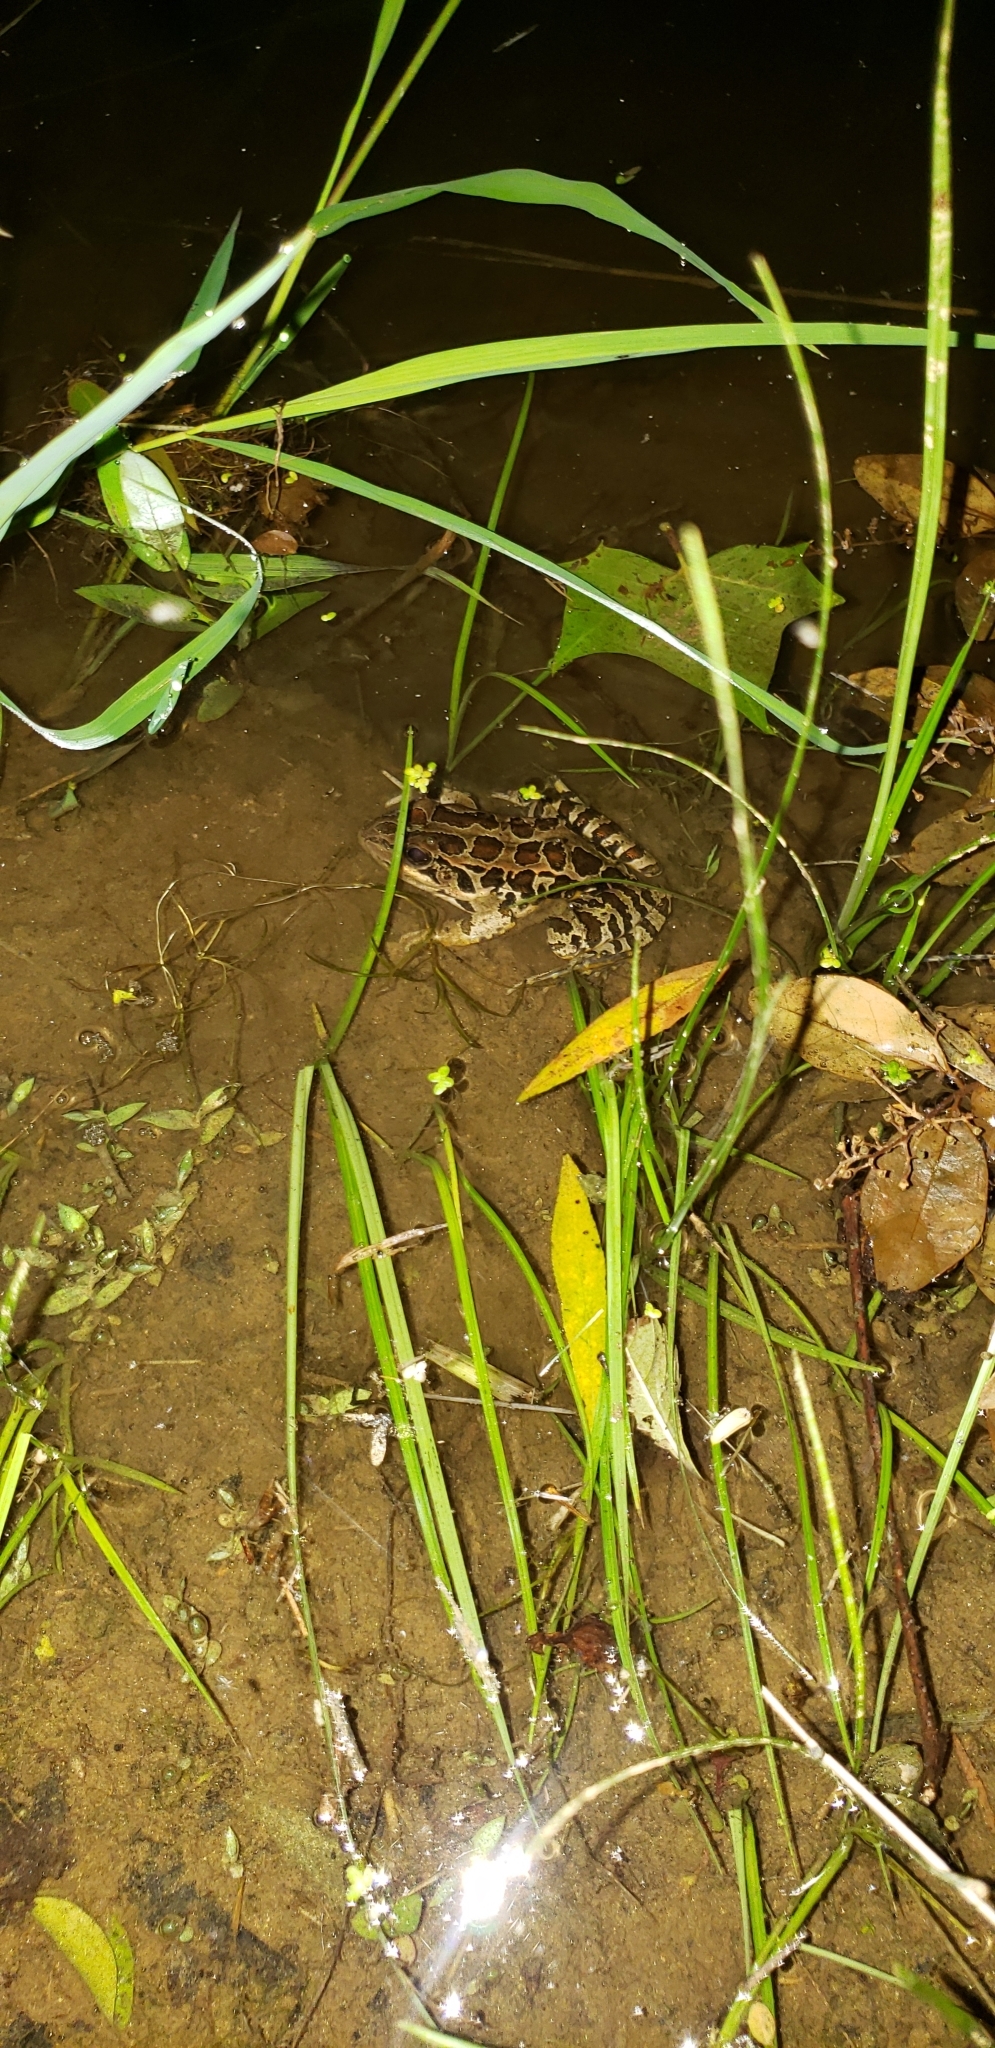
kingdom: Animalia
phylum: Chordata
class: Amphibia
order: Anura
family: Ranidae
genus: Lithobates
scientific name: Lithobates palustris
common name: Pickerel frog
